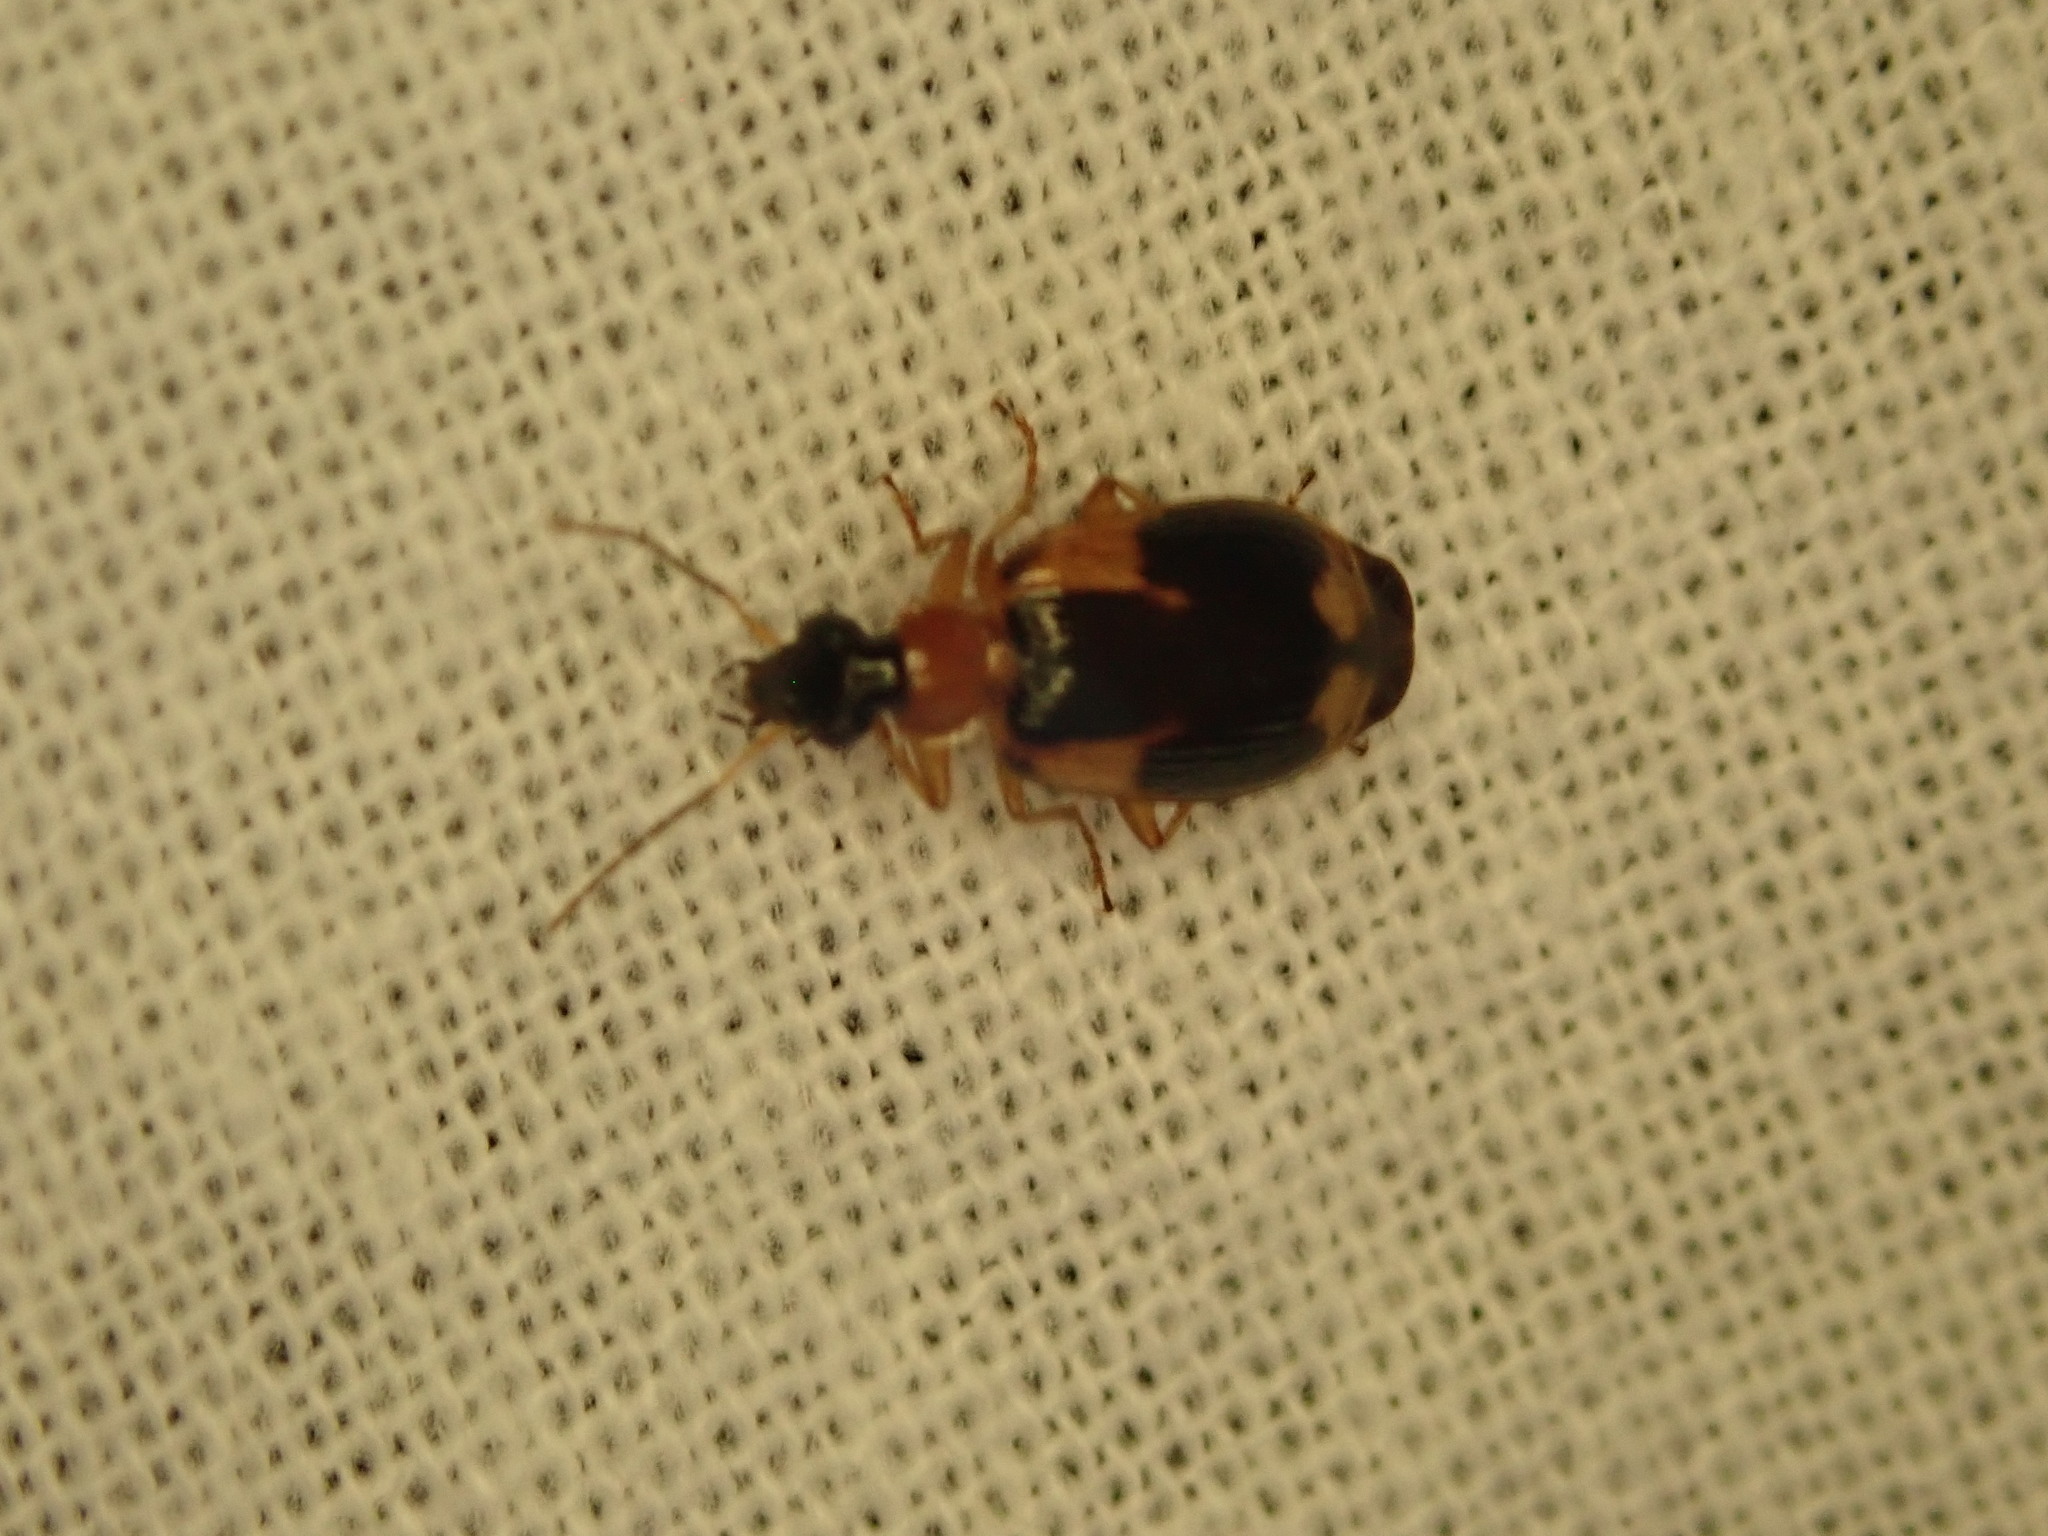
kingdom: Animalia
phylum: Arthropoda
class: Insecta
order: Coleoptera
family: Carabidae
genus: Lebia
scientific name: Lebia analis
